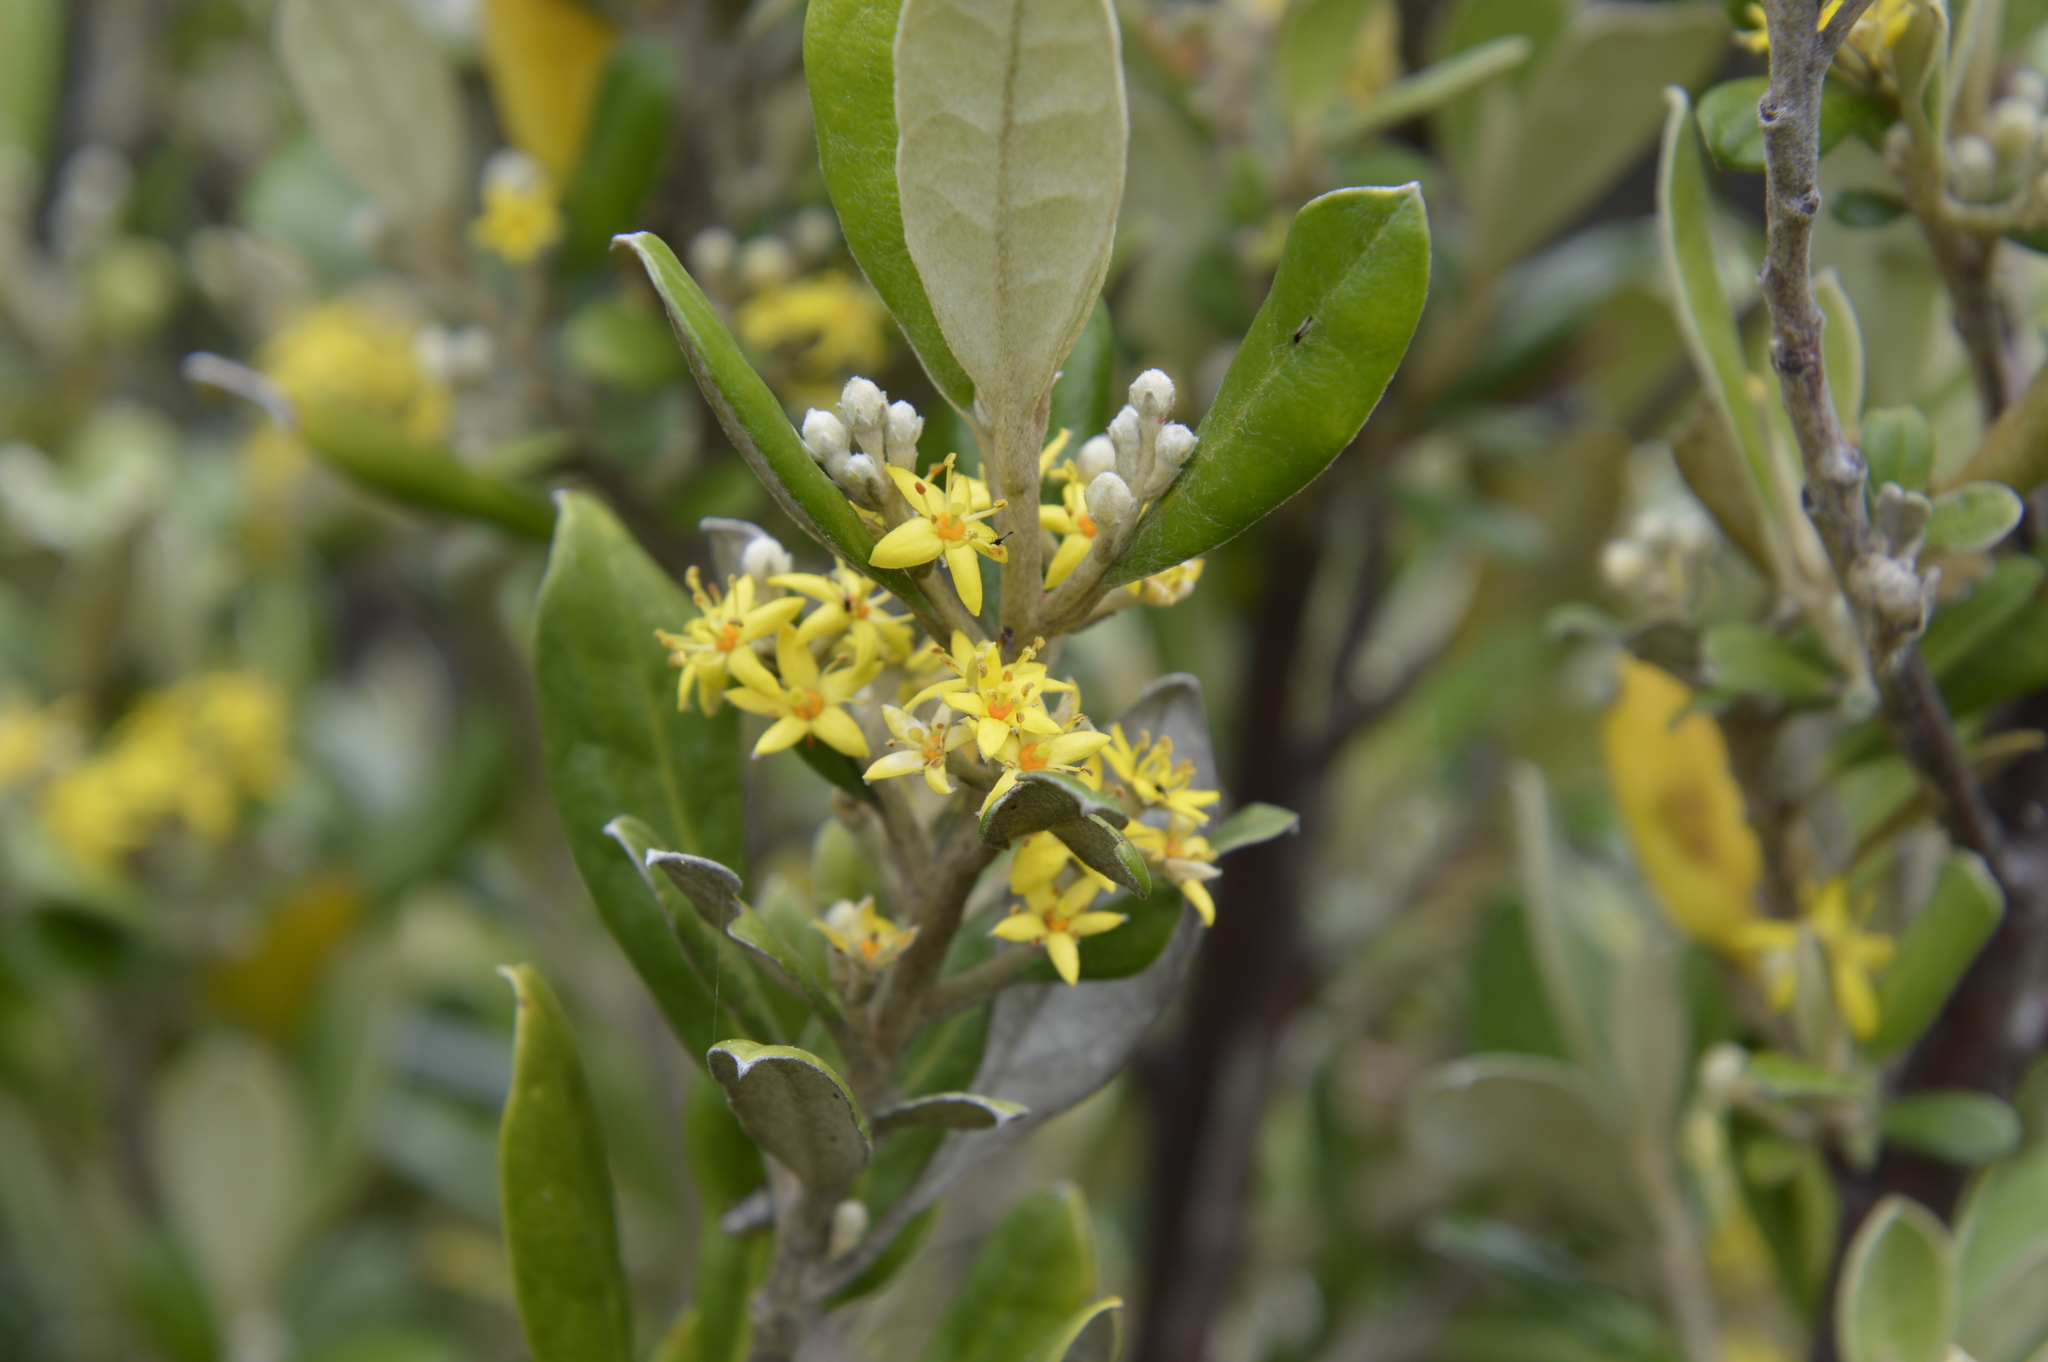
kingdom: Plantae
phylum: Tracheophyta
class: Magnoliopsida
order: Asterales
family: Argophyllaceae
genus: Corokia
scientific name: Corokia macrocarpa
